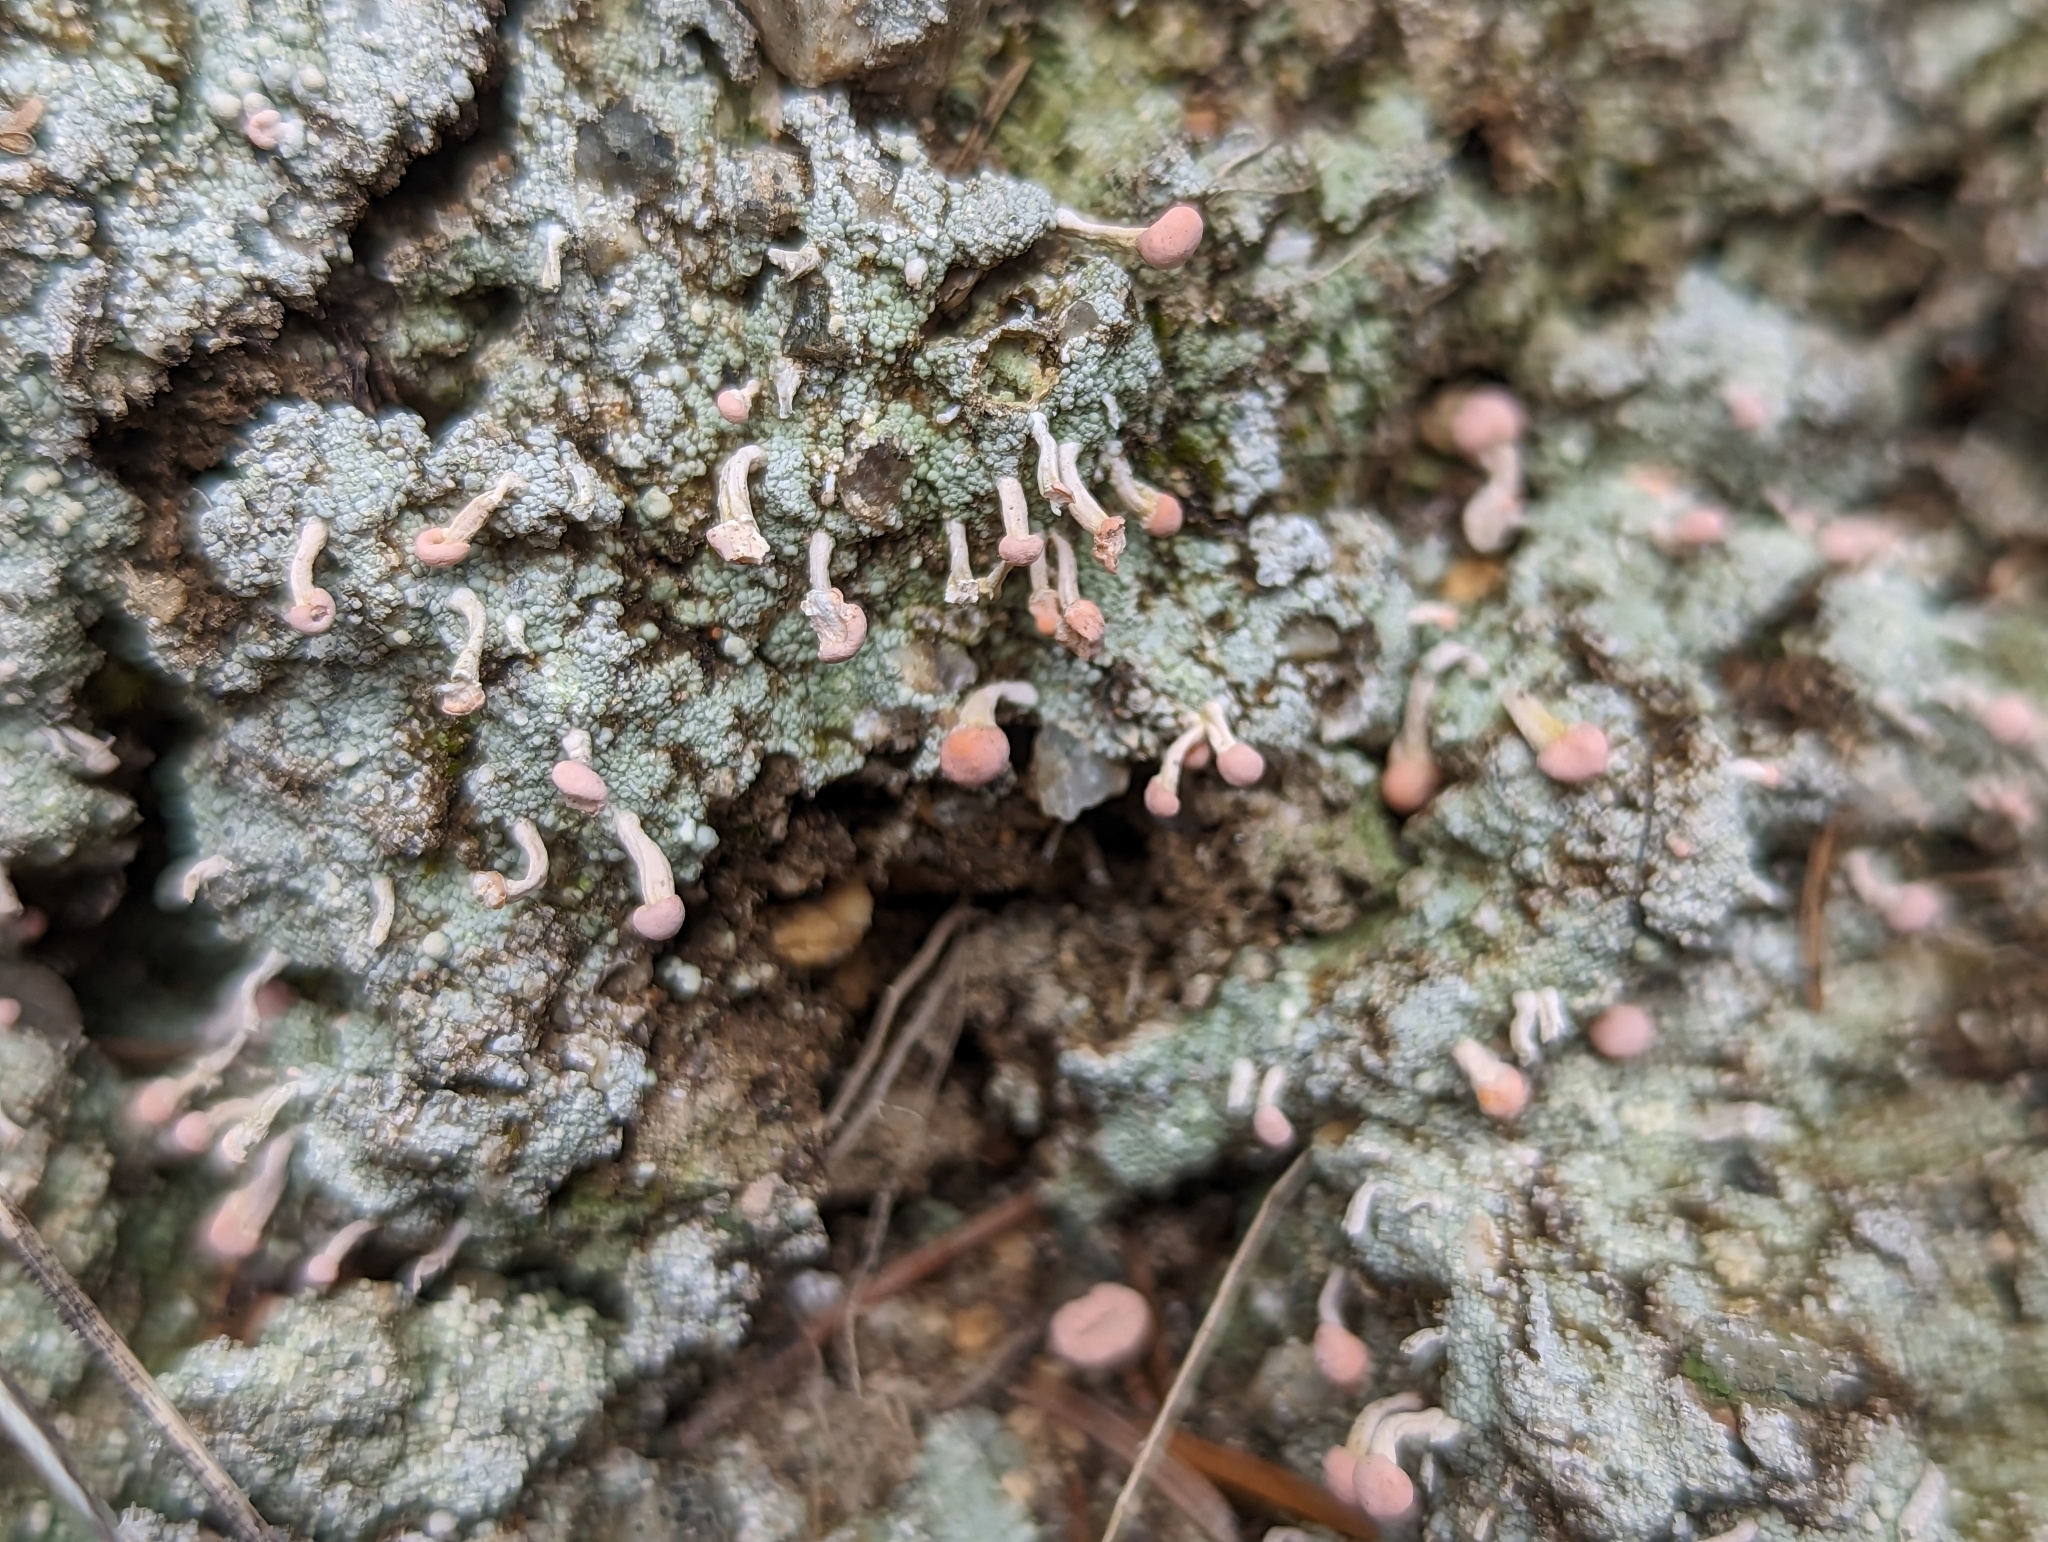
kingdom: Fungi
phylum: Ascomycota
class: Lecanoromycetes
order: Pertusariales
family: Icmadophilaceae
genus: Dibaeis
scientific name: Dibaeis baeomyces
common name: Pink earth lichen
